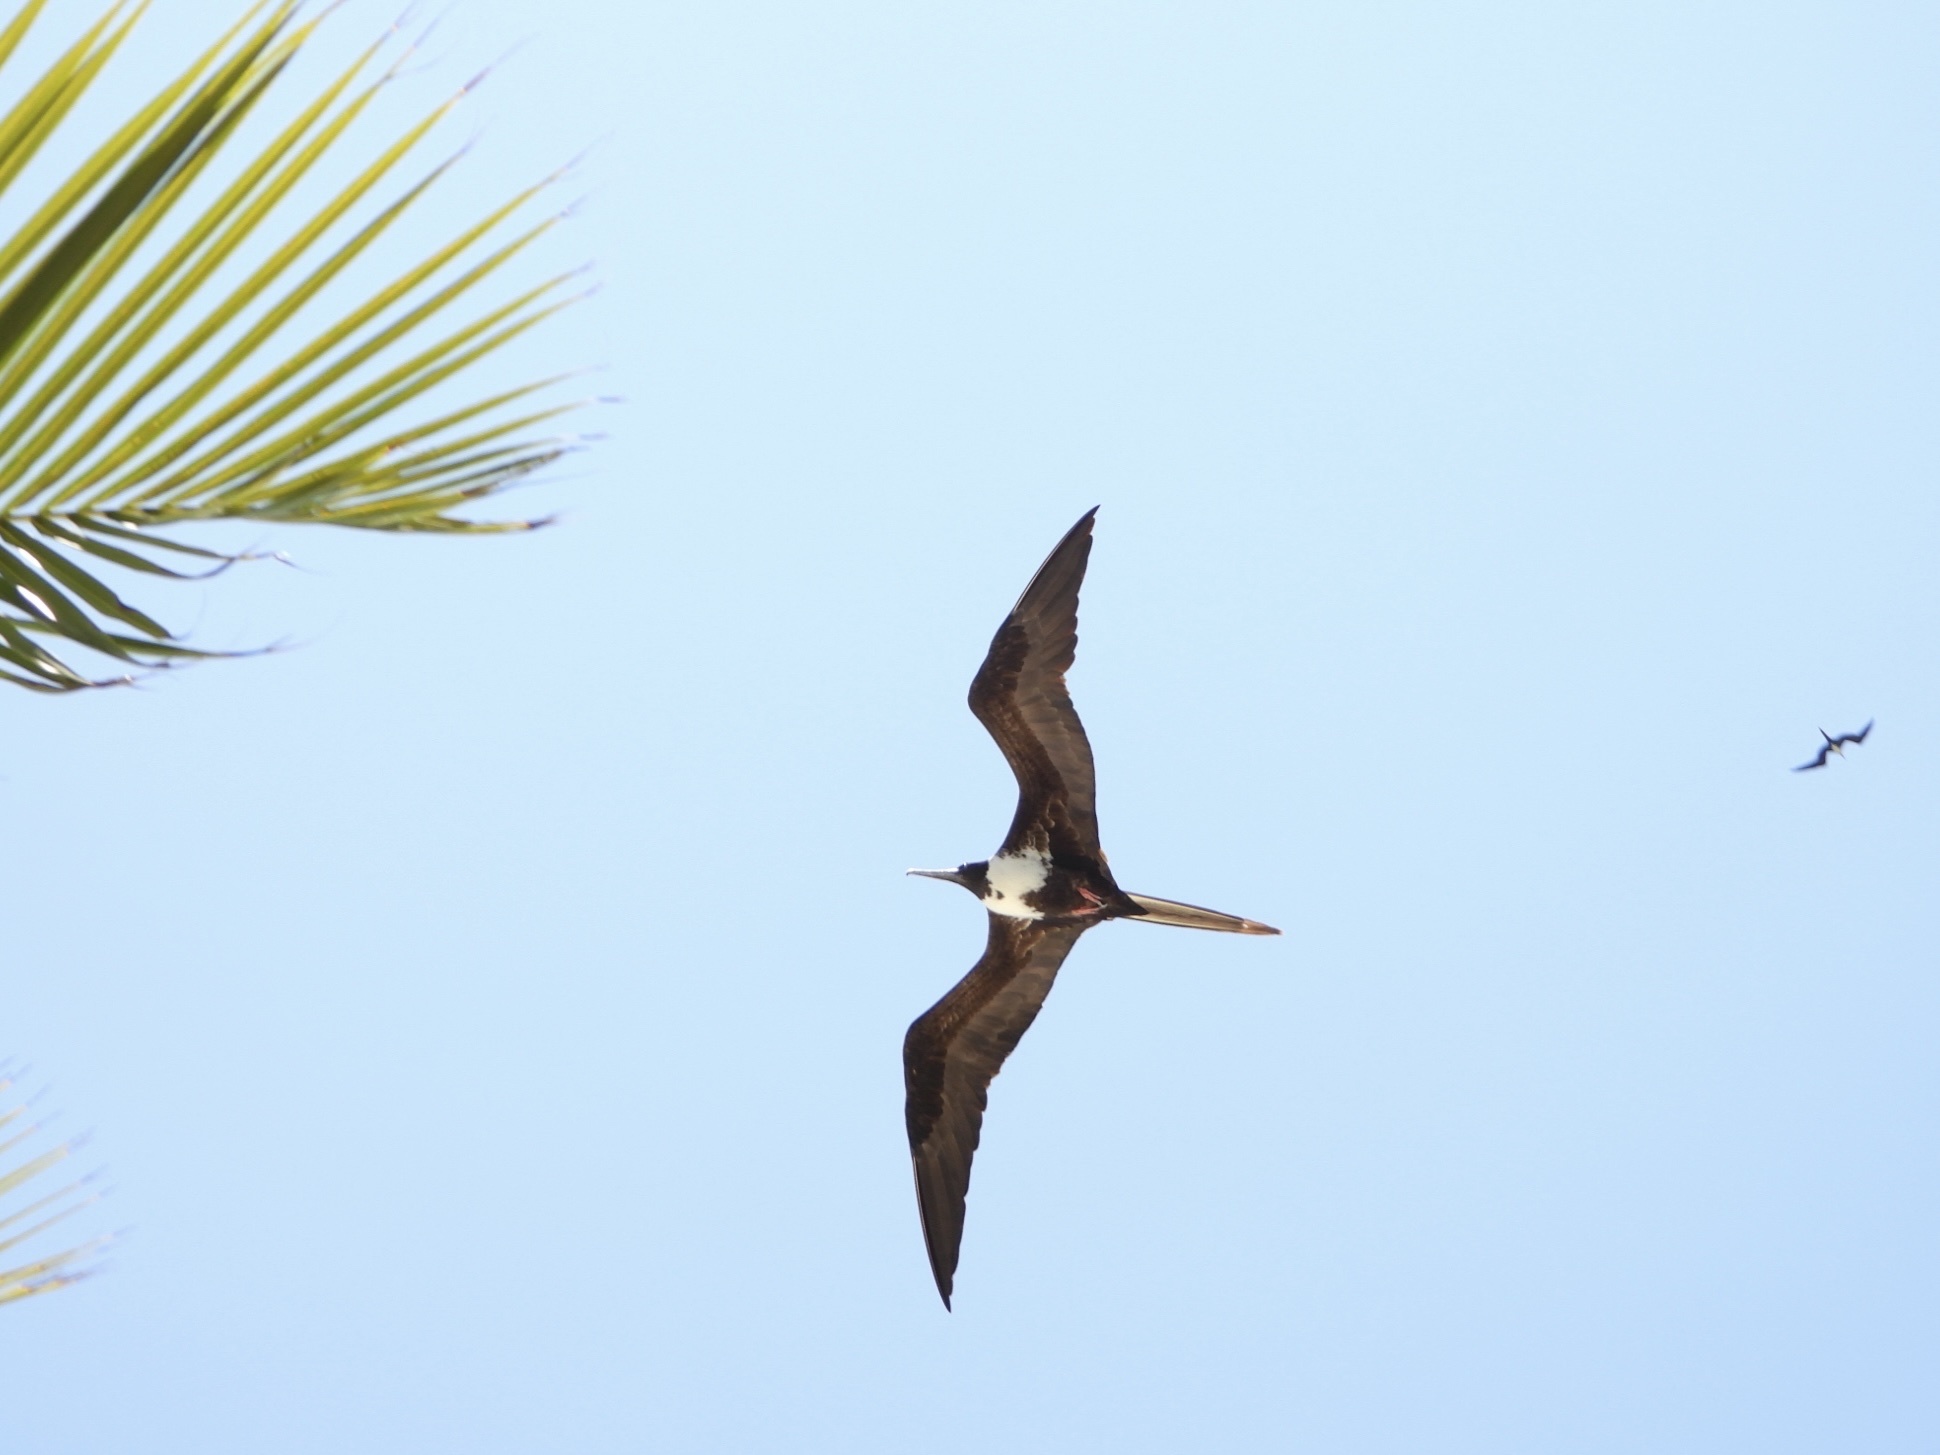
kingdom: Animalia
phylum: Chordata
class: Aves
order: Suliformes
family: Fregatidae
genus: Fregata
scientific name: Fregata magnificens
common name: Magnificent frigatebird
